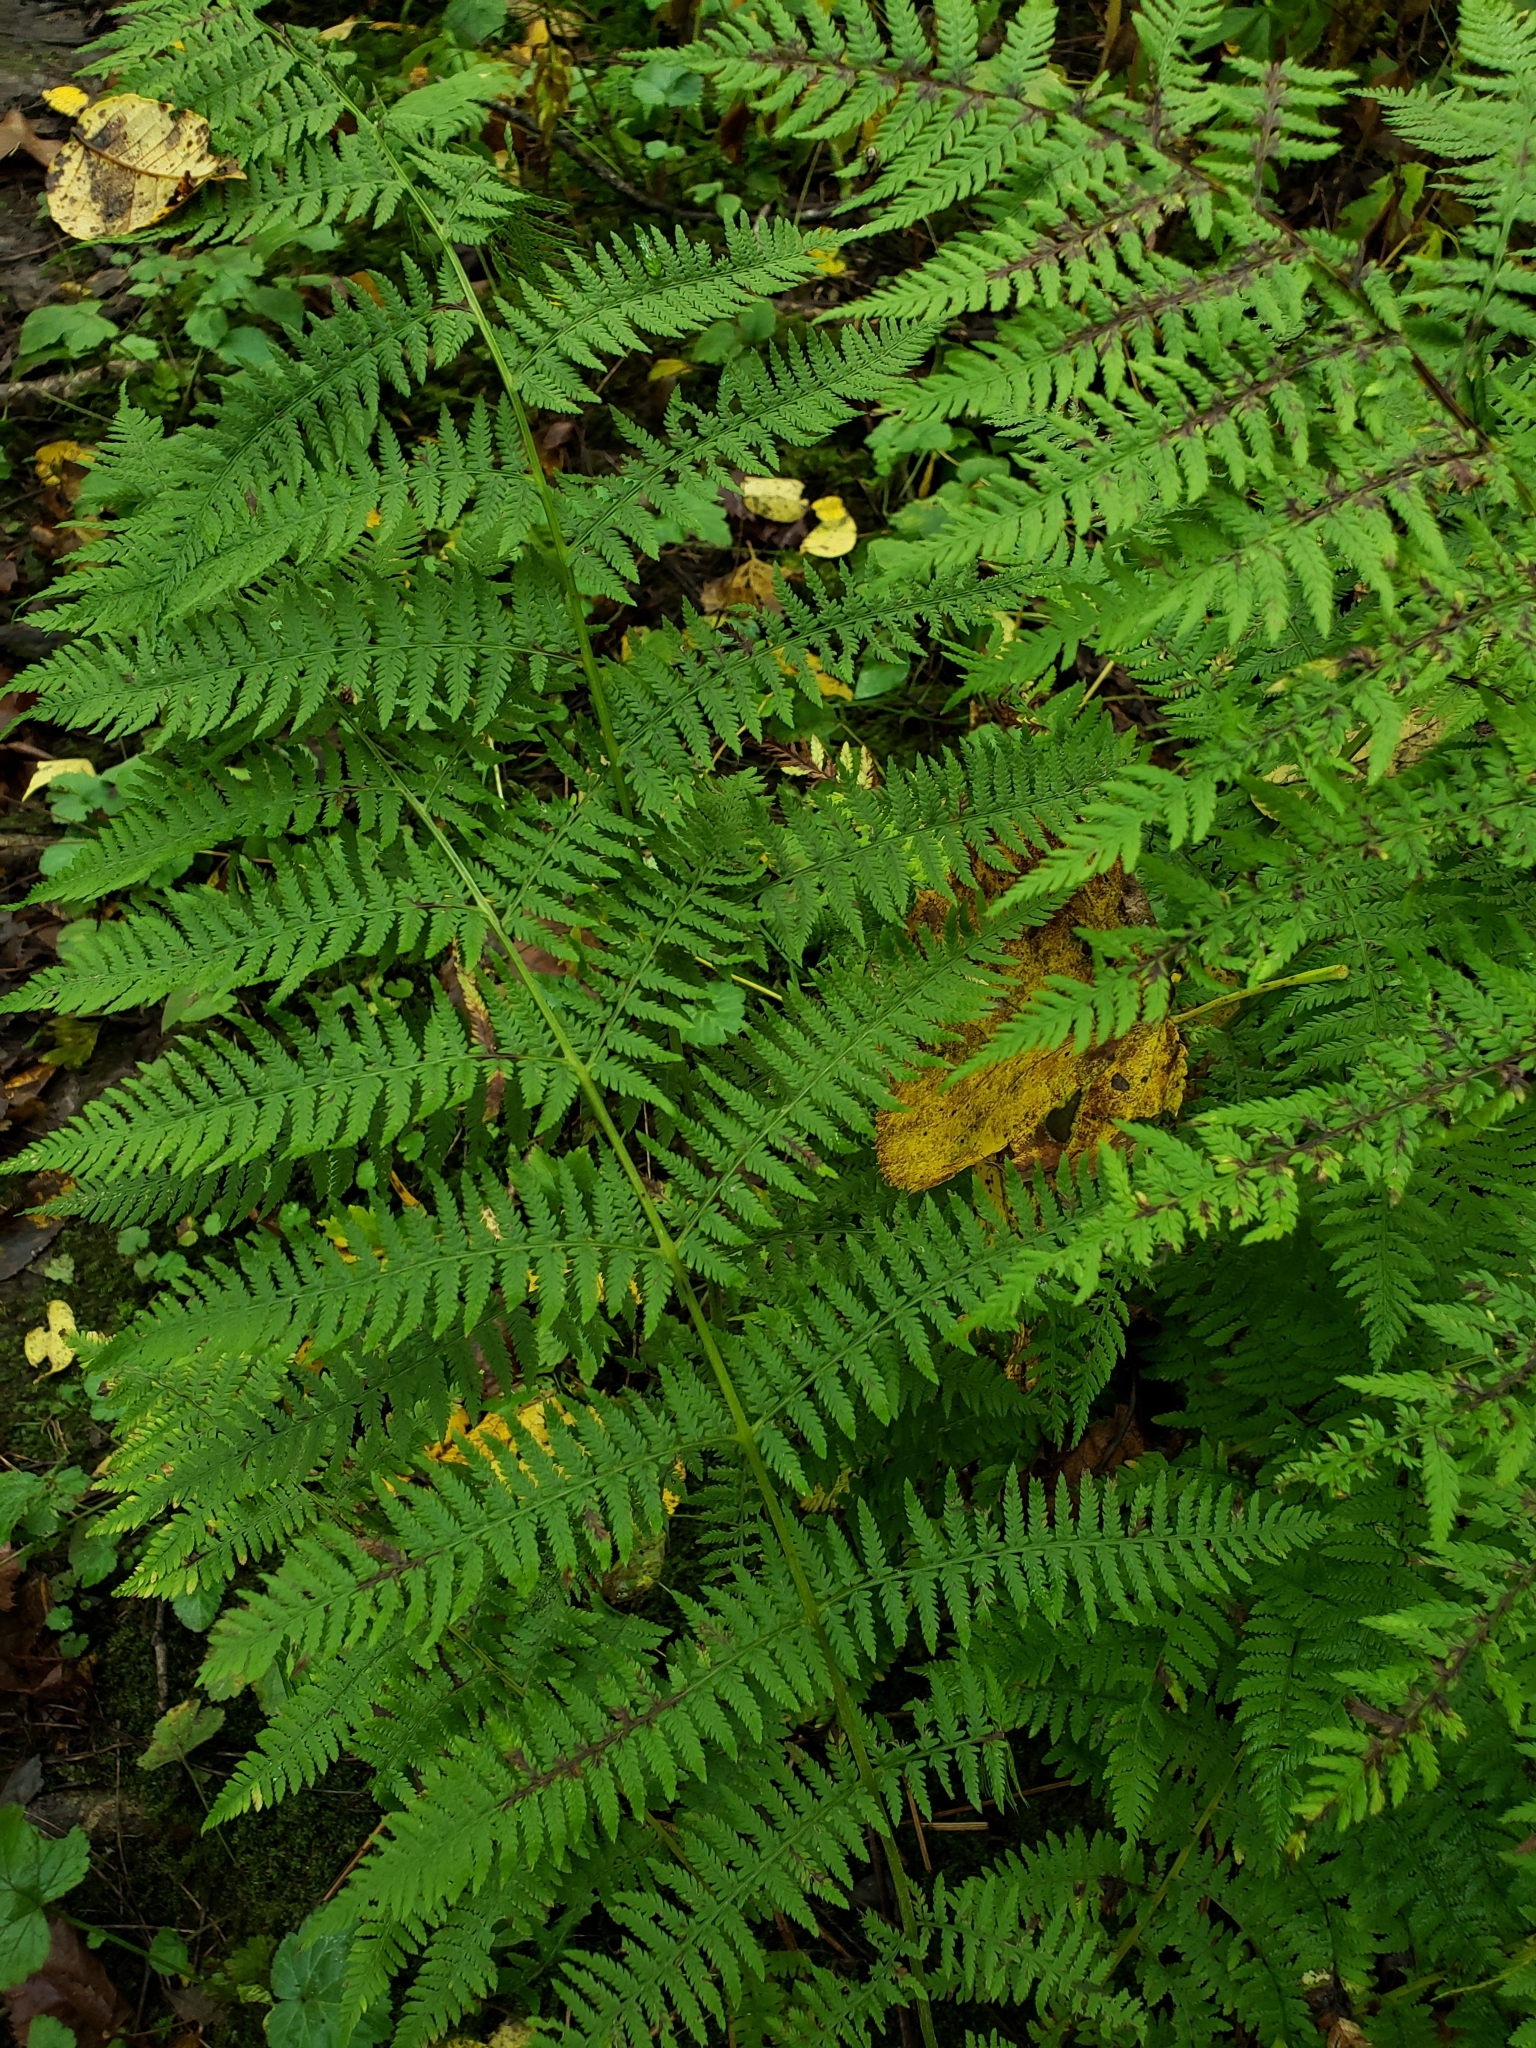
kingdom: Plantae
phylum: Tracheophyta
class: Polypodiopsida
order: Polypodiales
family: Athyriaceae
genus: Athyrium
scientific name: Athyrium angustum
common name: Northern lady fern
